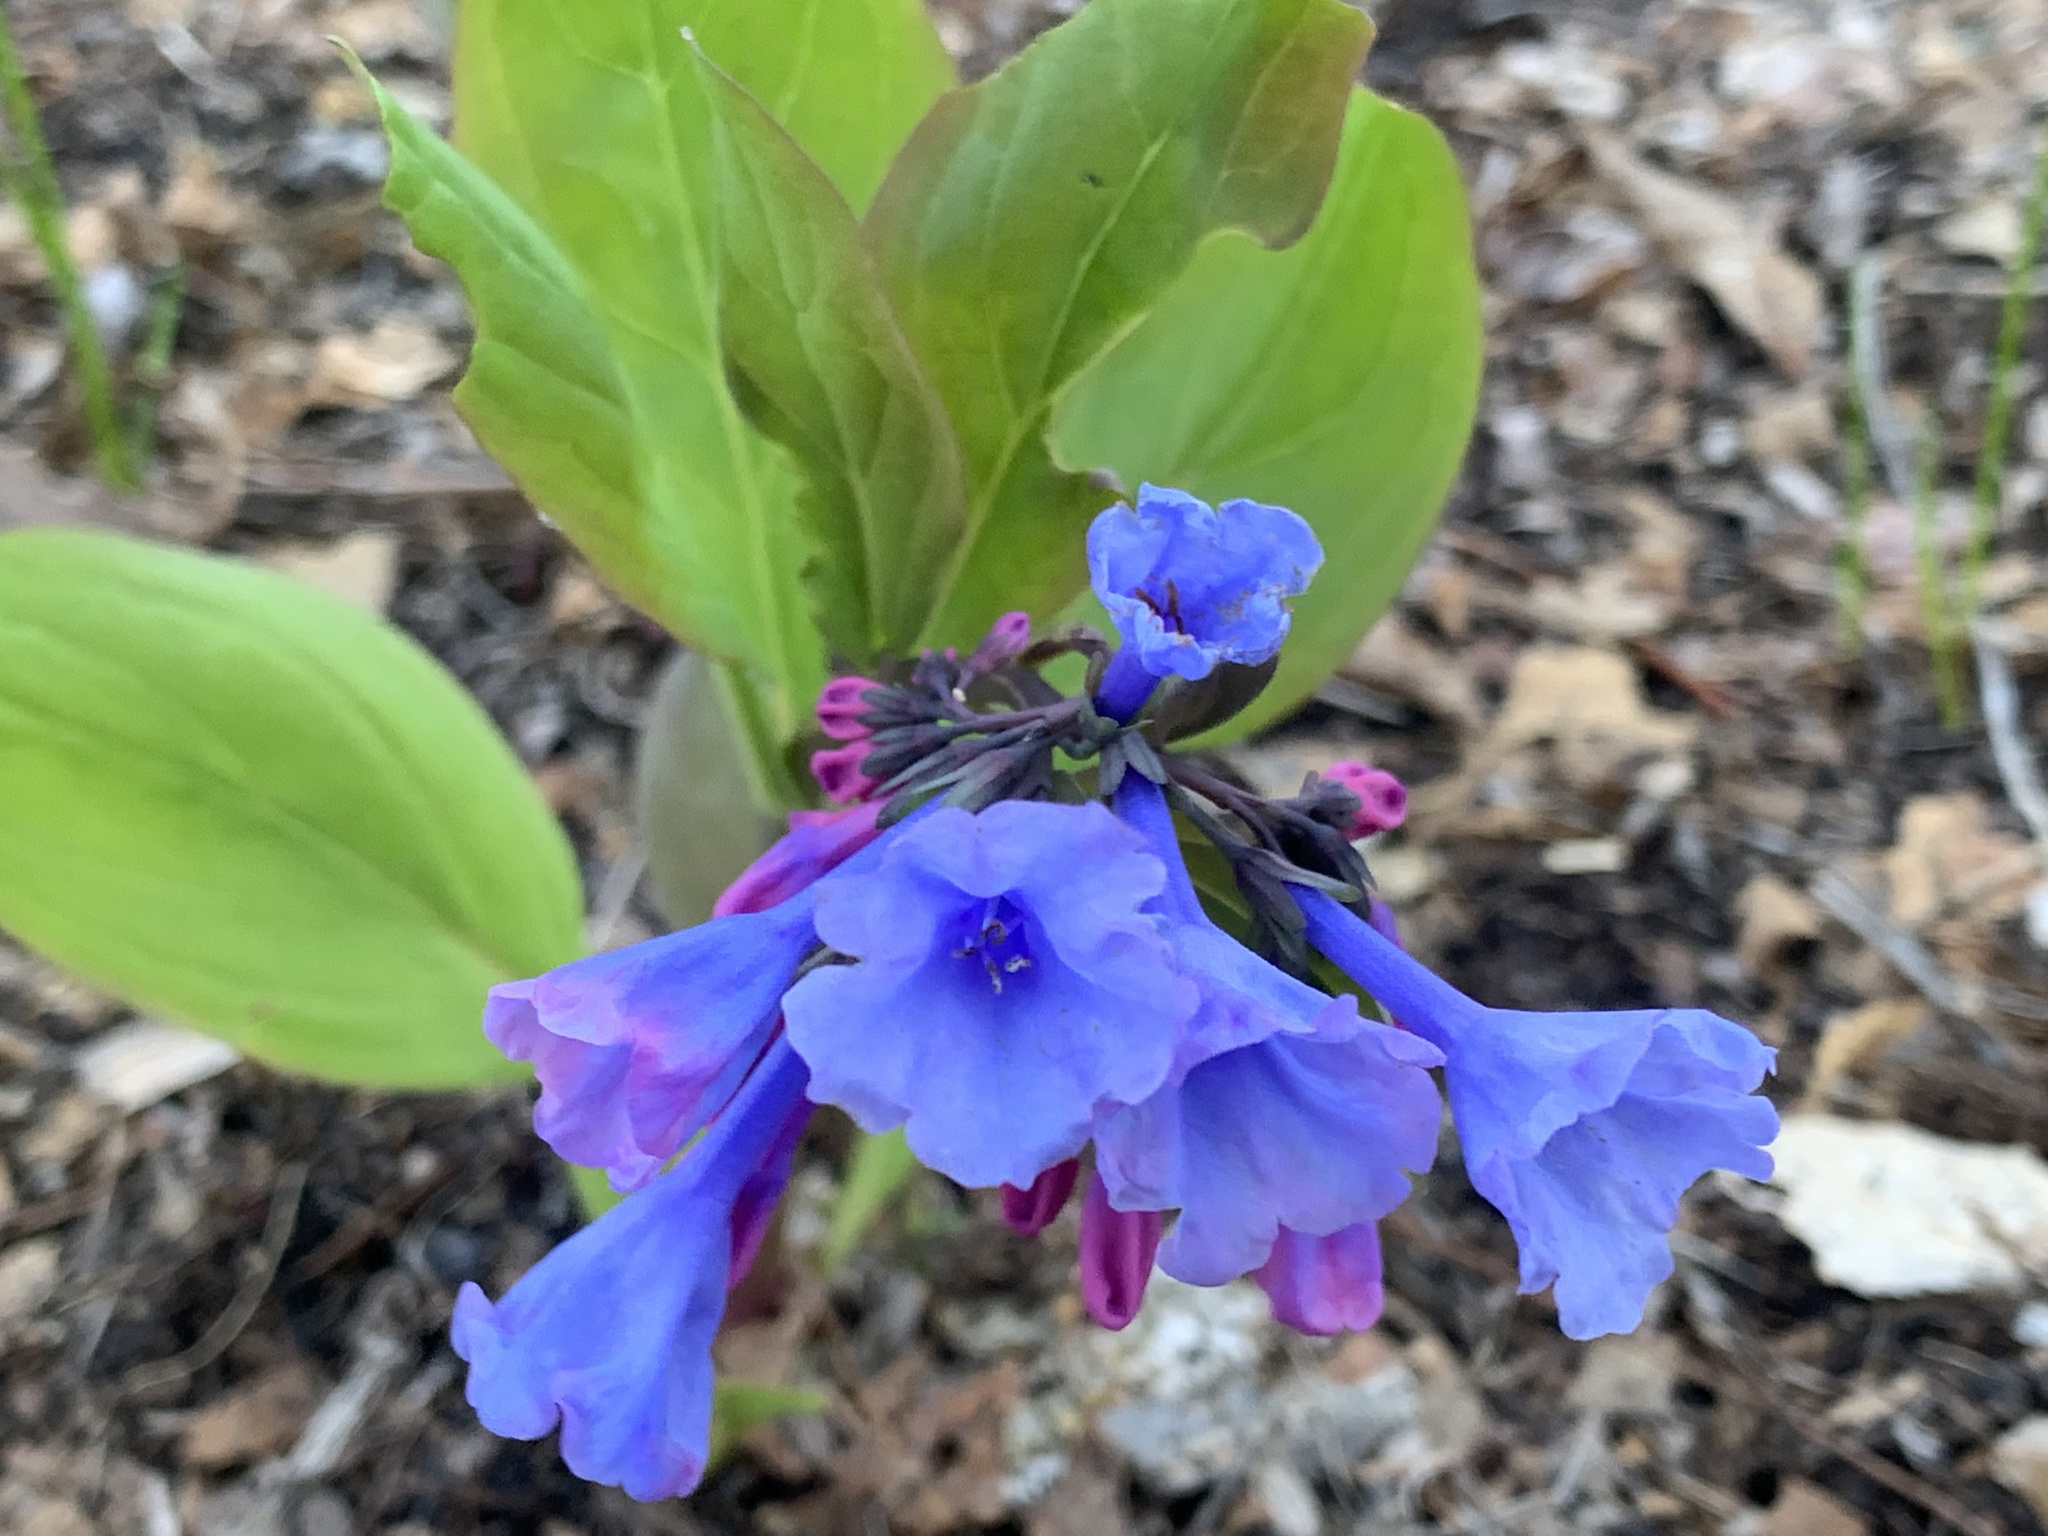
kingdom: Plantae
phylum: Tracheophyta
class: Magnoliopsida
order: Boraginales
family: Boraginaceae
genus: Mertensia
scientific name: Mertensia virginica
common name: Virginia bluebells
